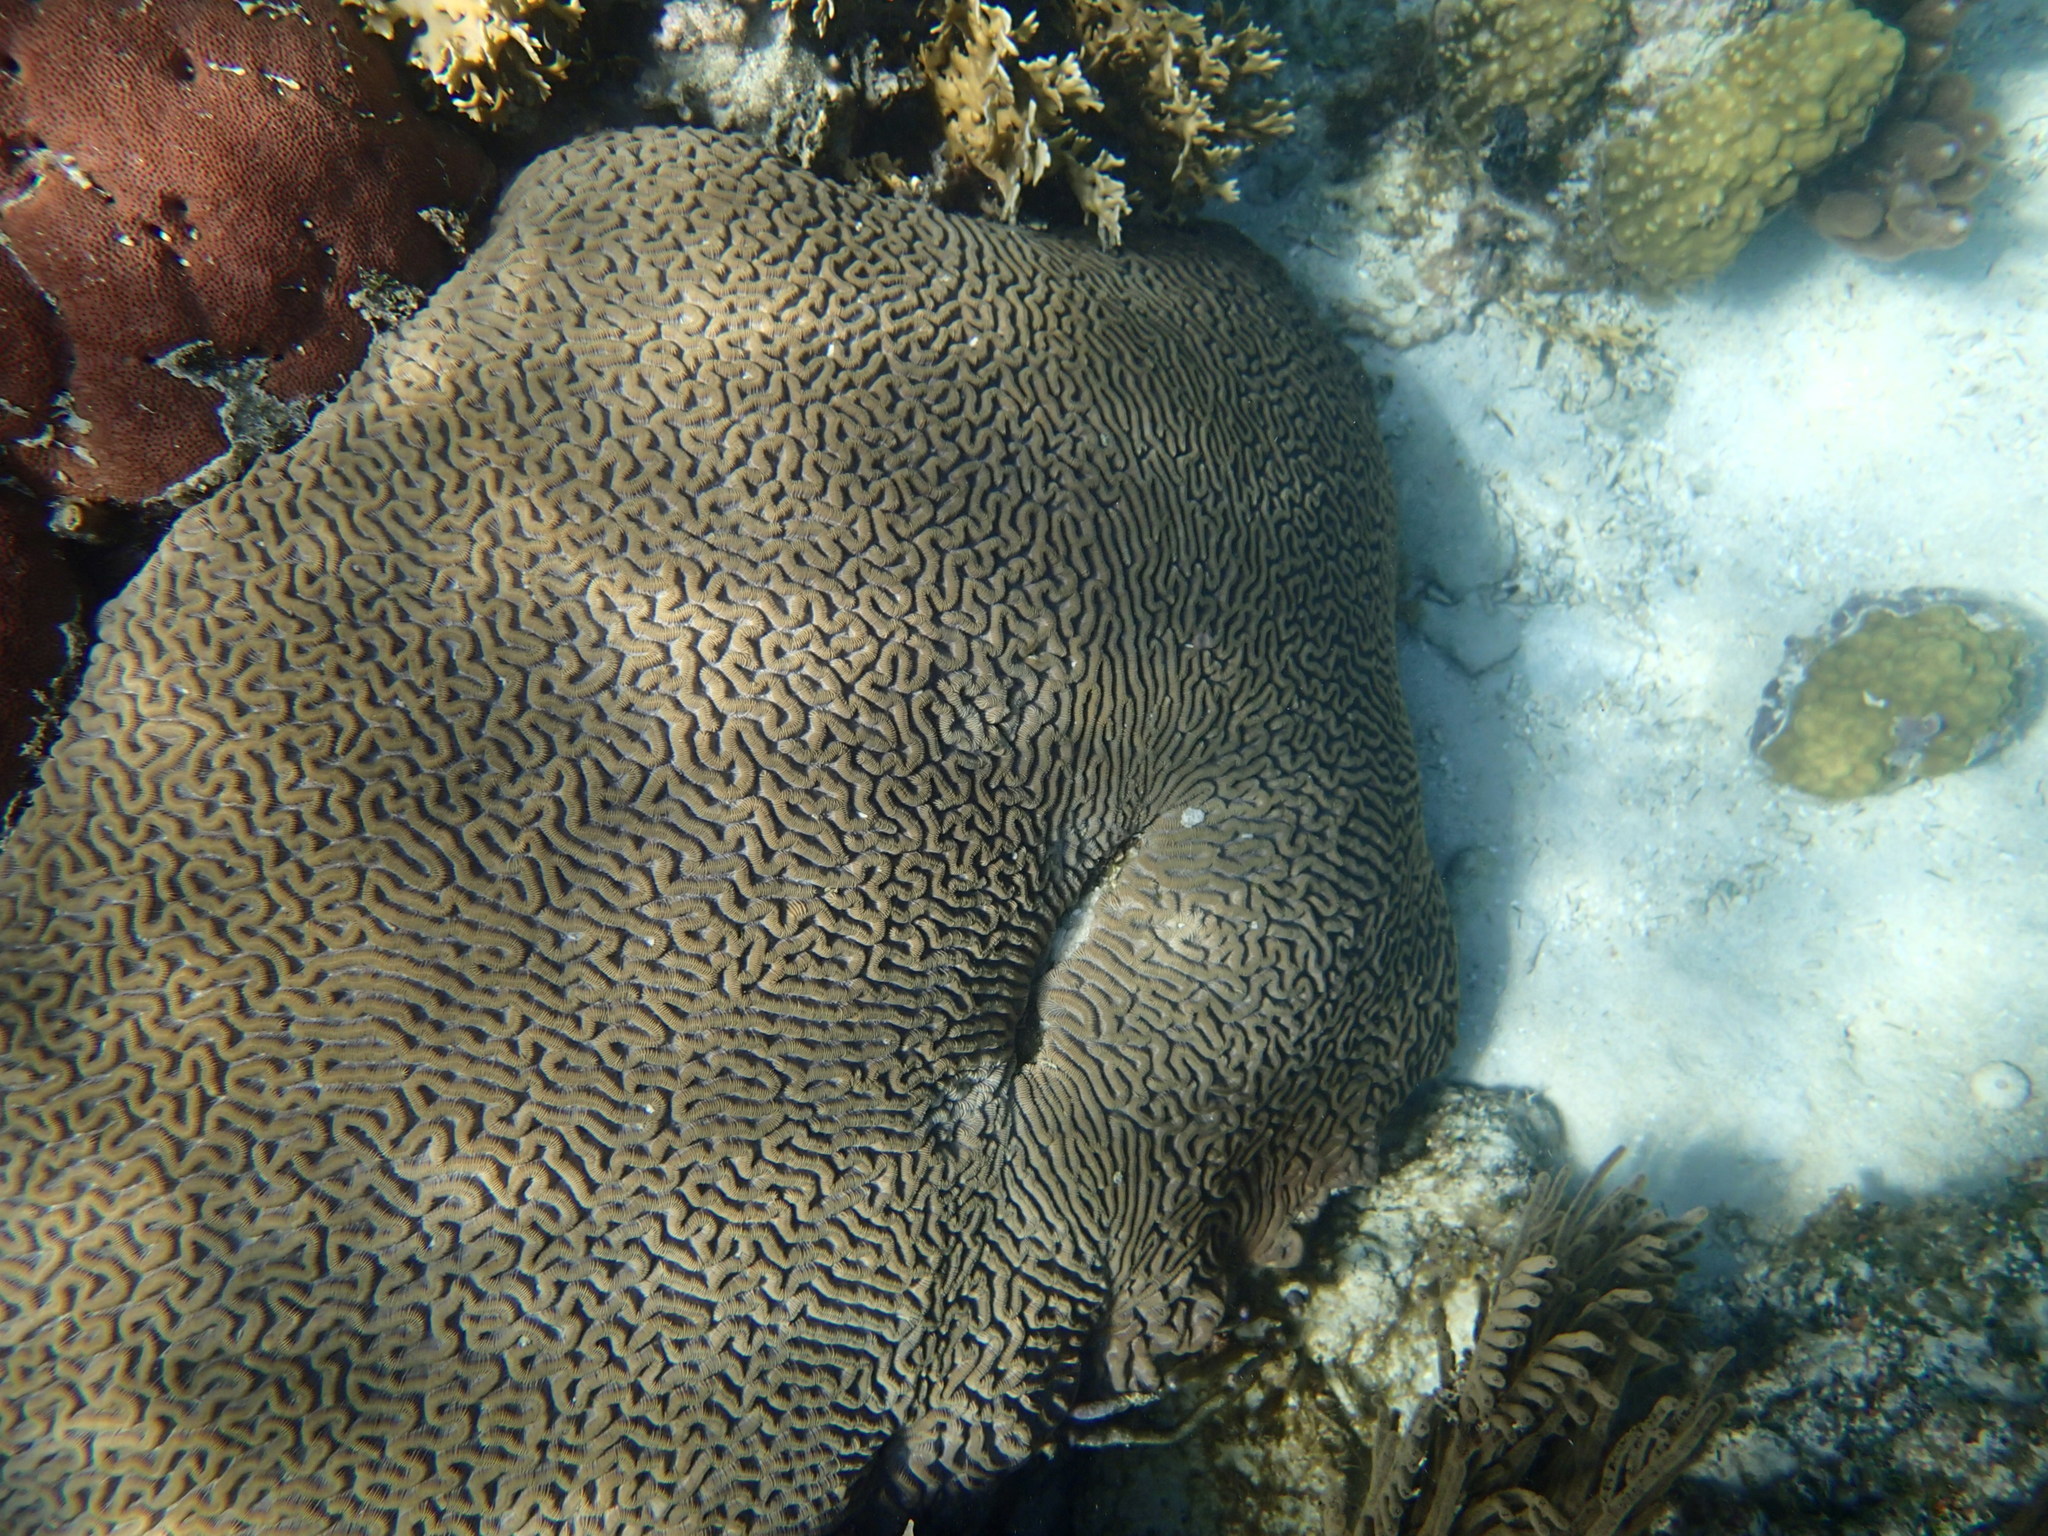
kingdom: Animalia
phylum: Cnidaria
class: Anthozoa
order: Scleractinia
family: Faviidae
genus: Colpophyllia
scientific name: Colpophyllia natans
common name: Boulder brain coral
